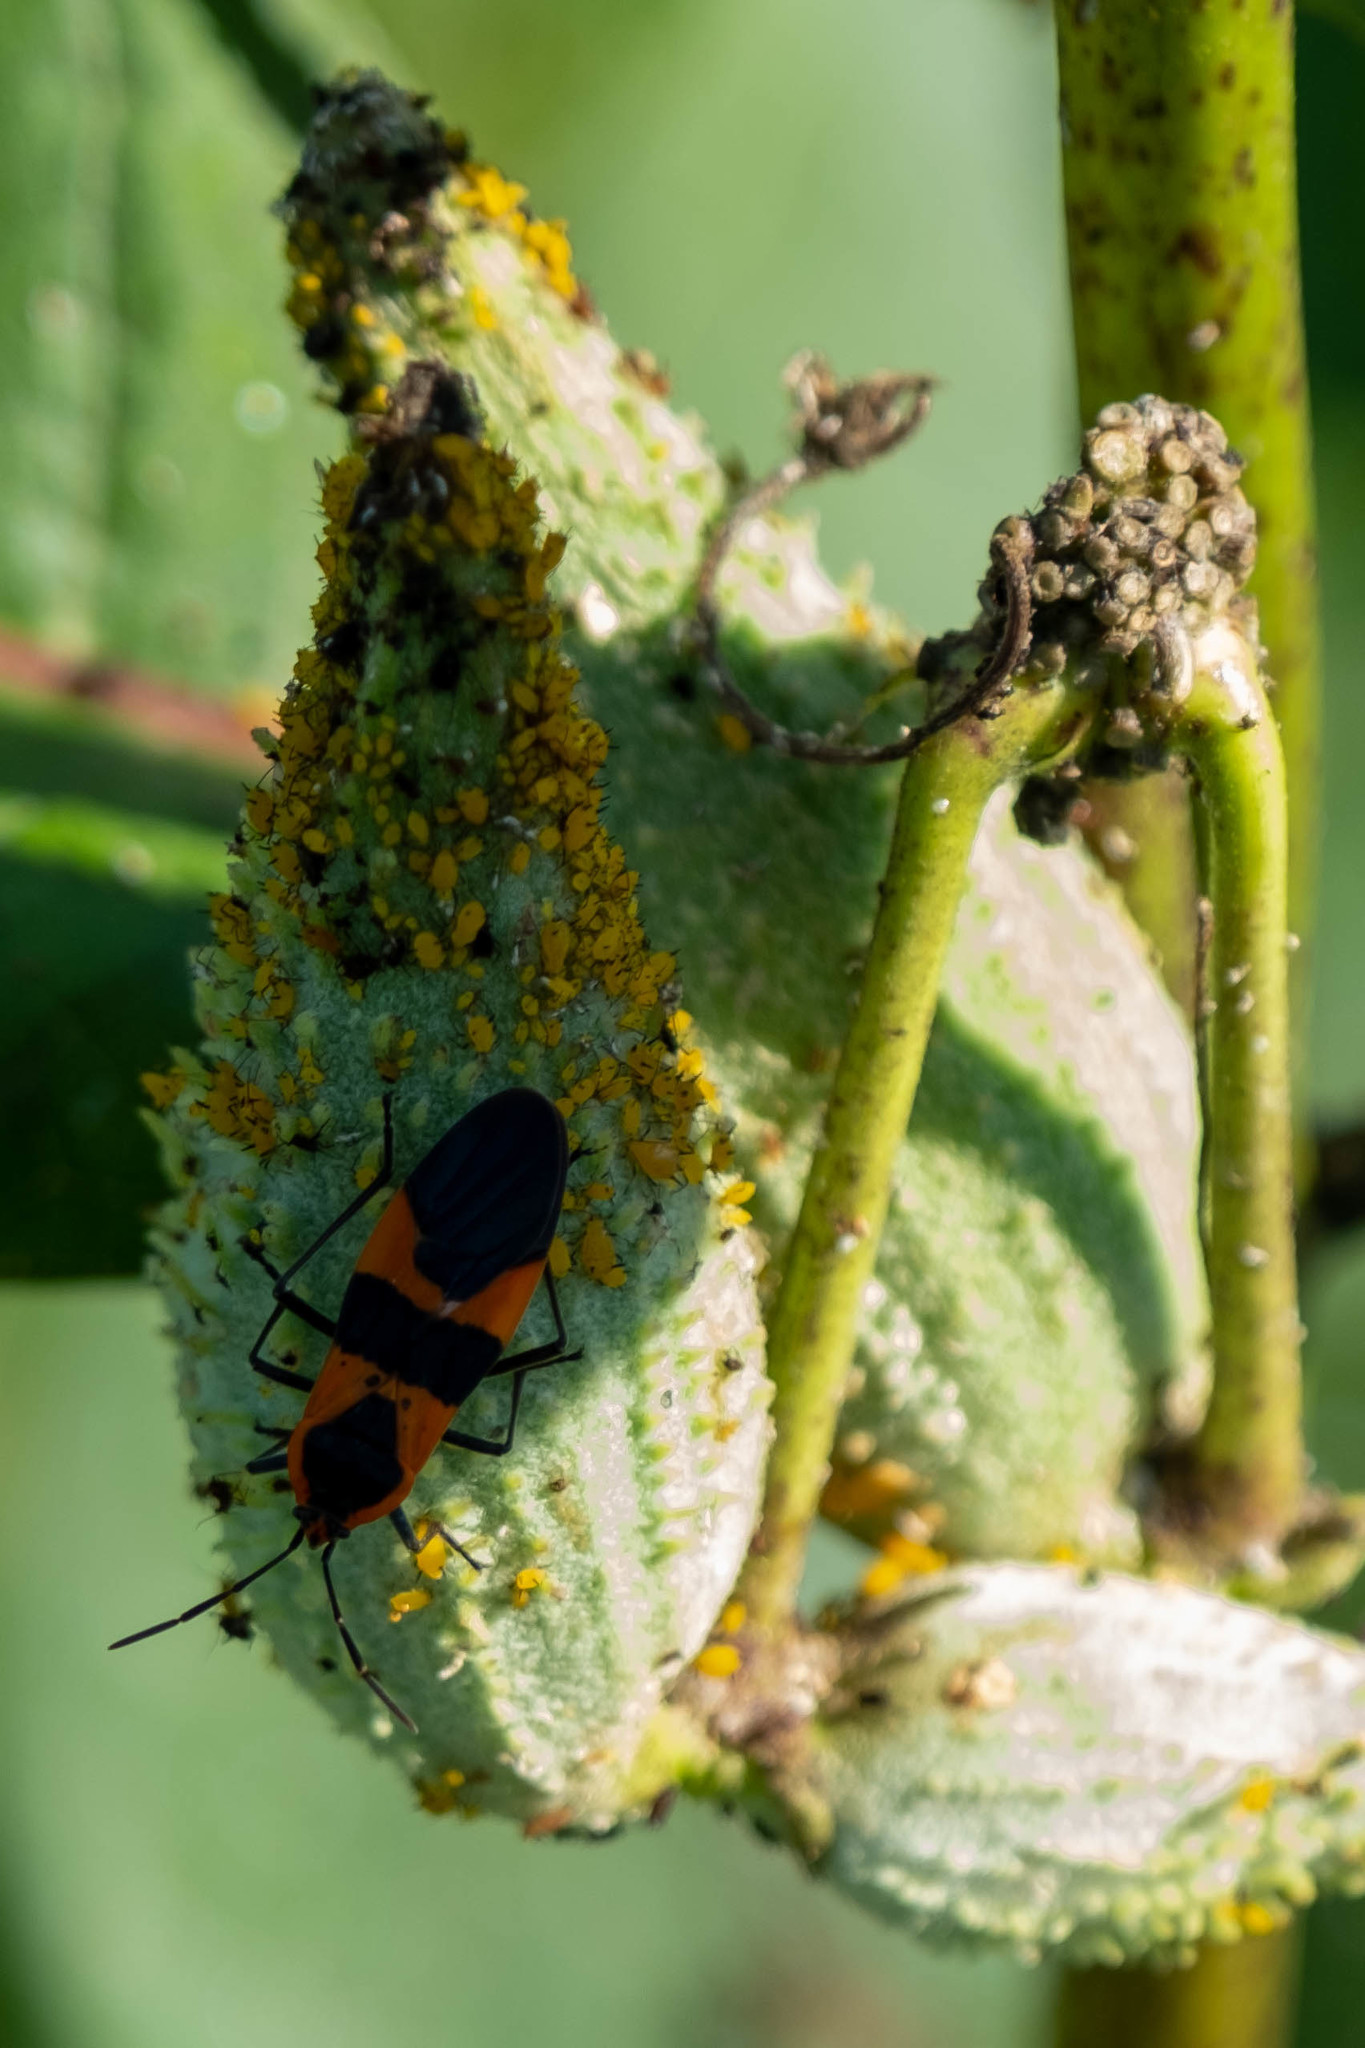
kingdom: Animalia
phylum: Arthropoda
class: Insecta
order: Hemiptera
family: Lygaeidae
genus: Oncopeltus
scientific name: Oncopeltus fasciatus
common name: Large milkweed bug
